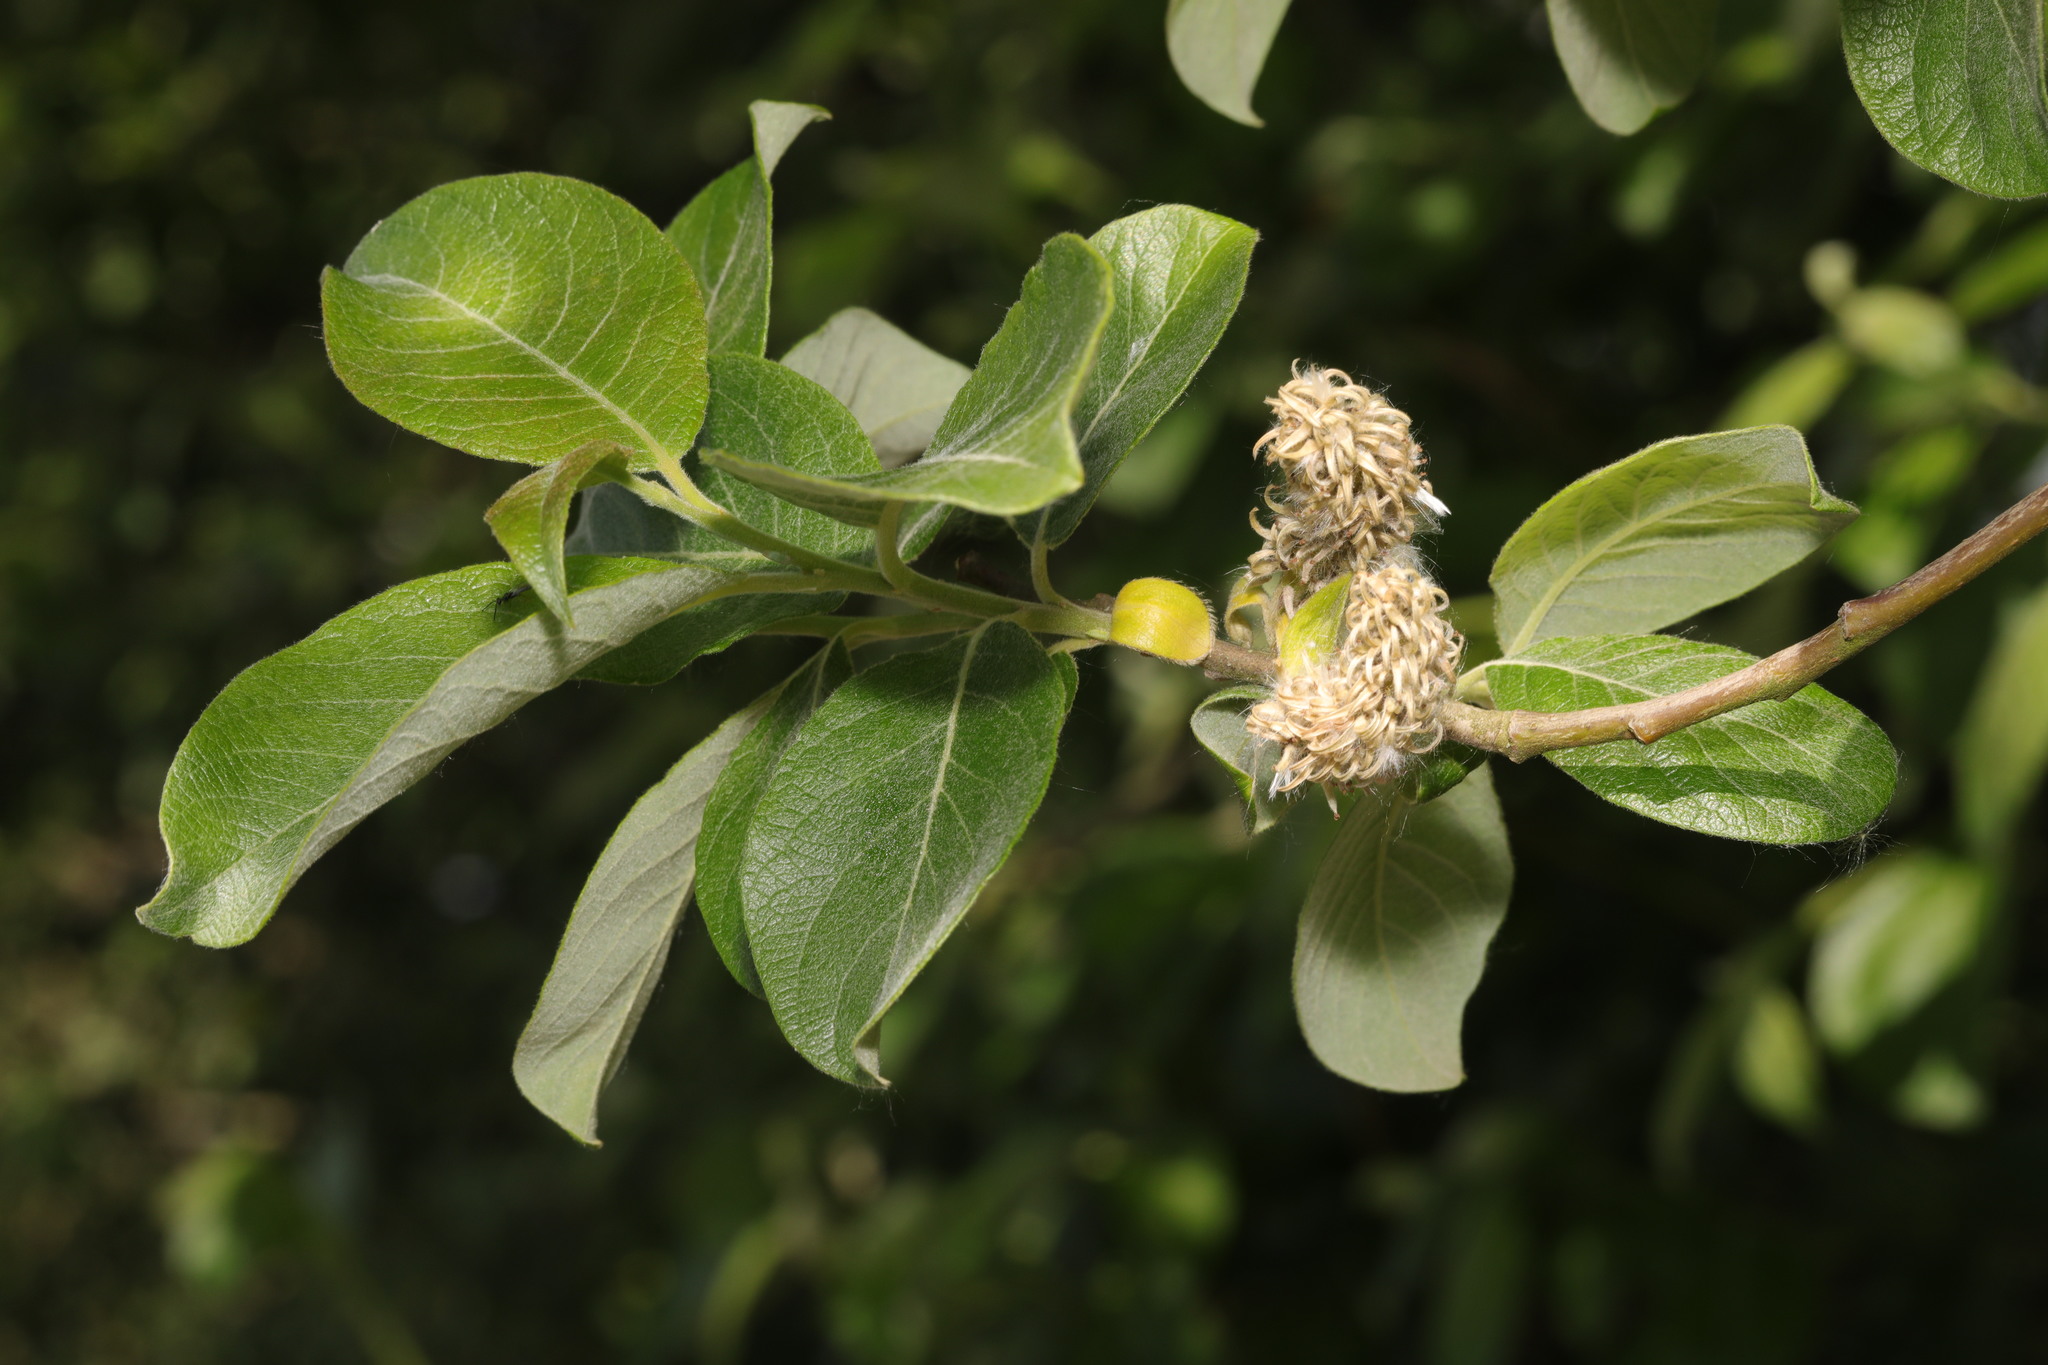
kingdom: Plantae
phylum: Tracheophyta
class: Magnoliopsida
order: Malpighiales
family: Salicaceae
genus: Salix
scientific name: Salix caprea
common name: Goat willow
